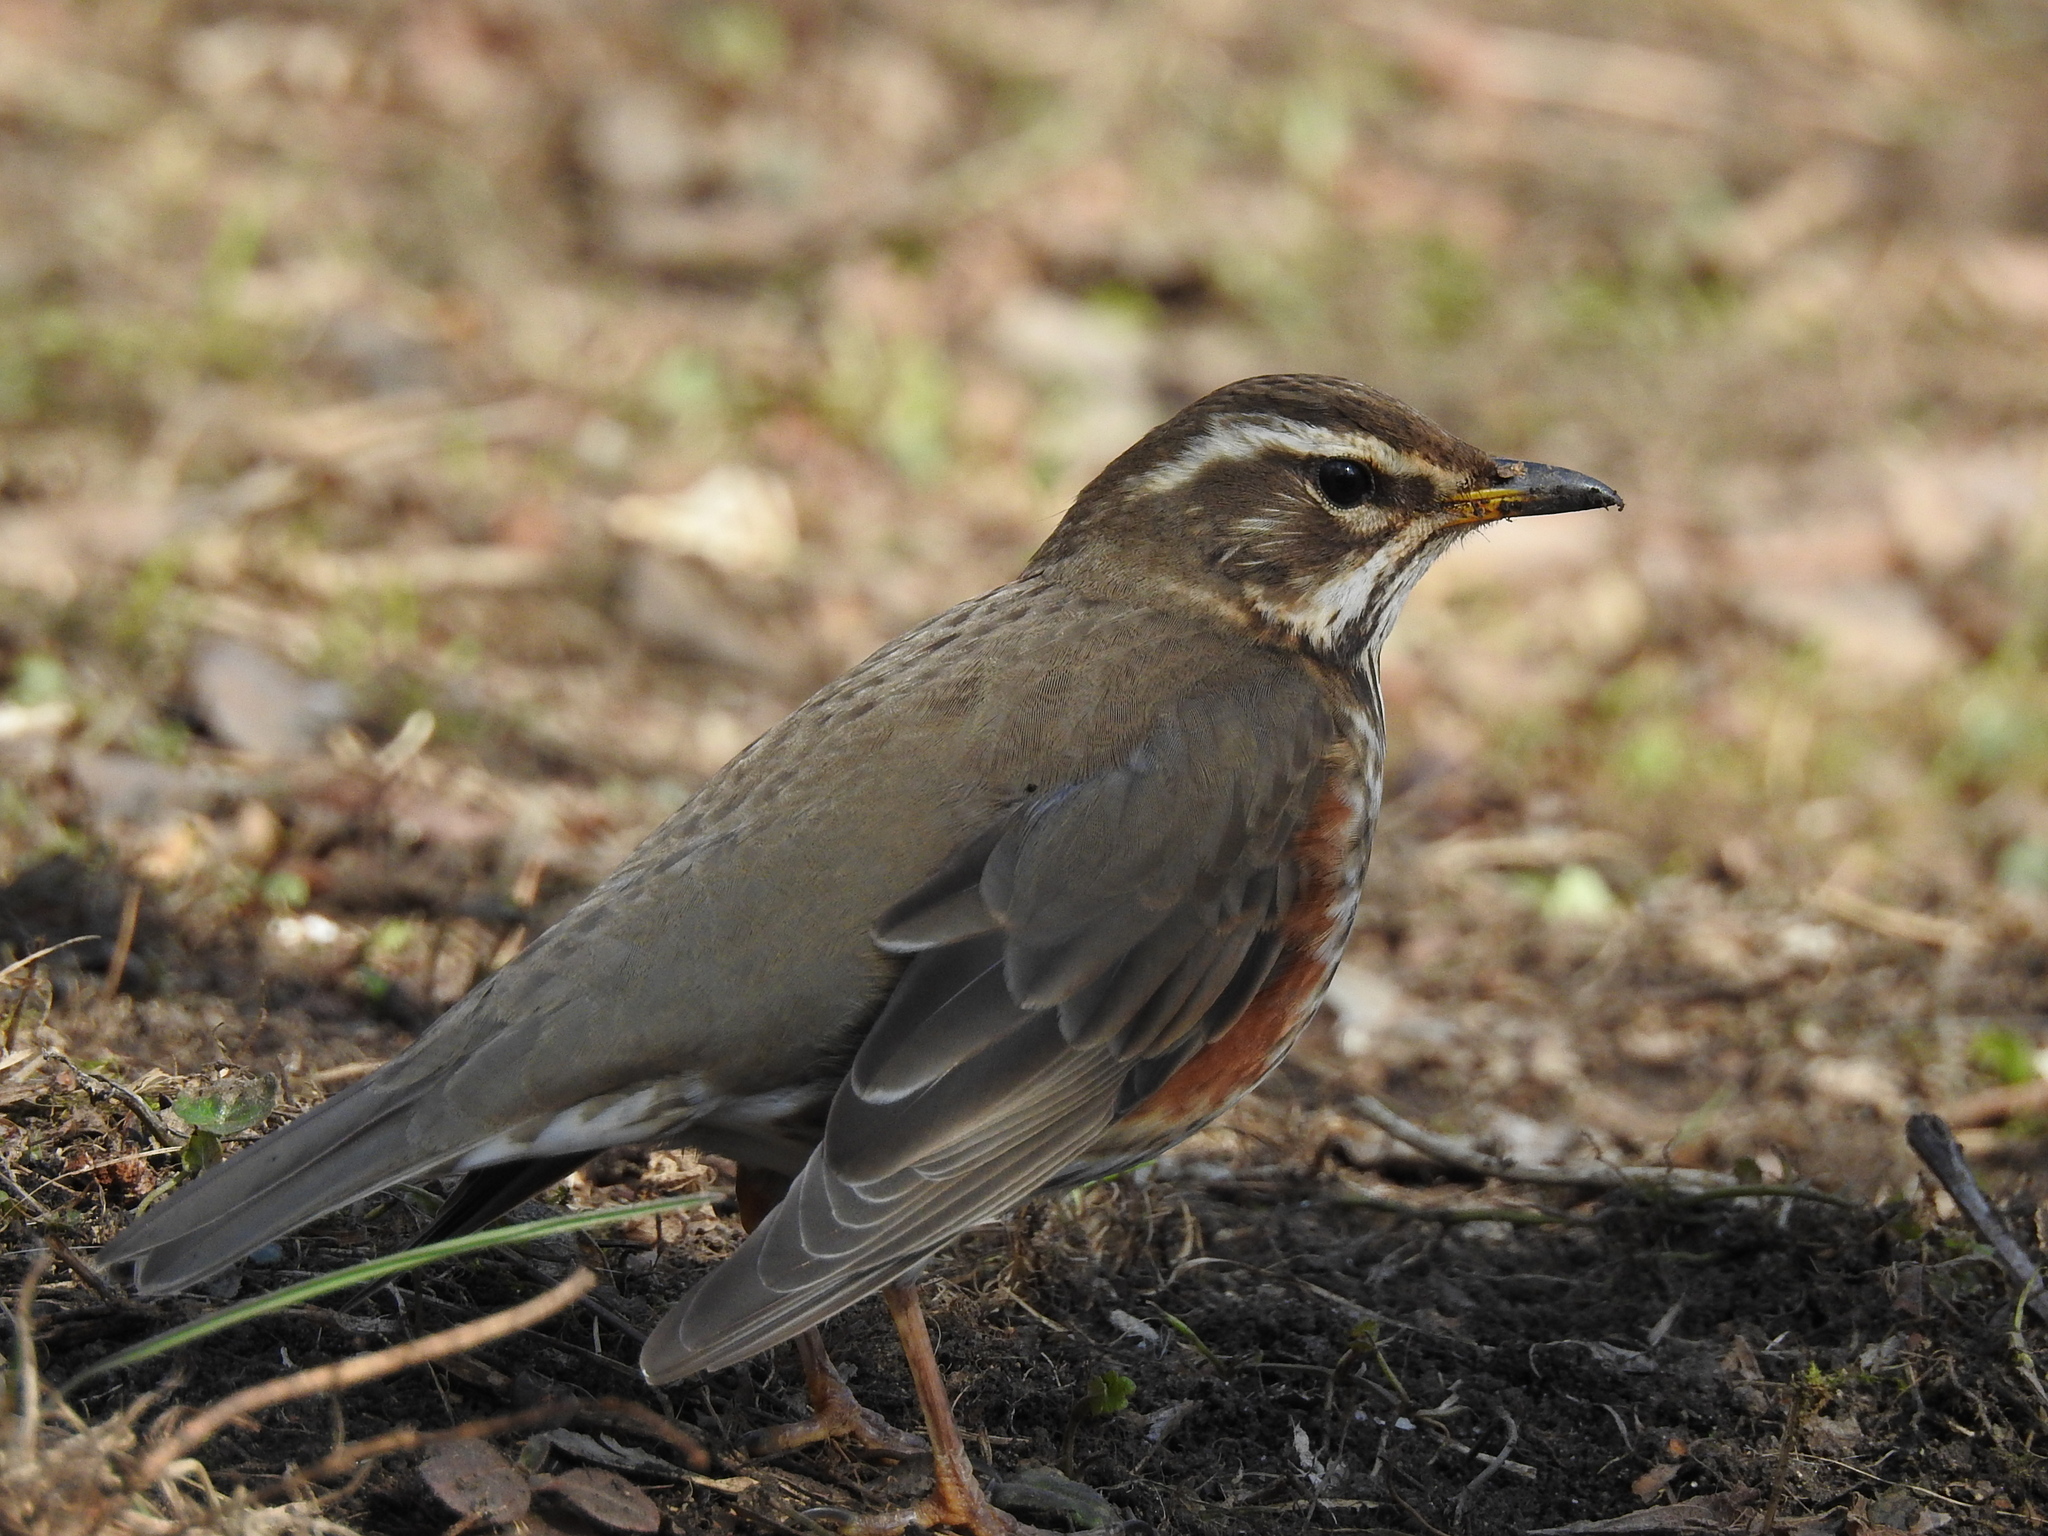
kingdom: Animalia
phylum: Chordata
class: Aves
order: Passeriformes
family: Turdidae
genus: Turdus
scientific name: Turdus iliacus
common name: Redwing
